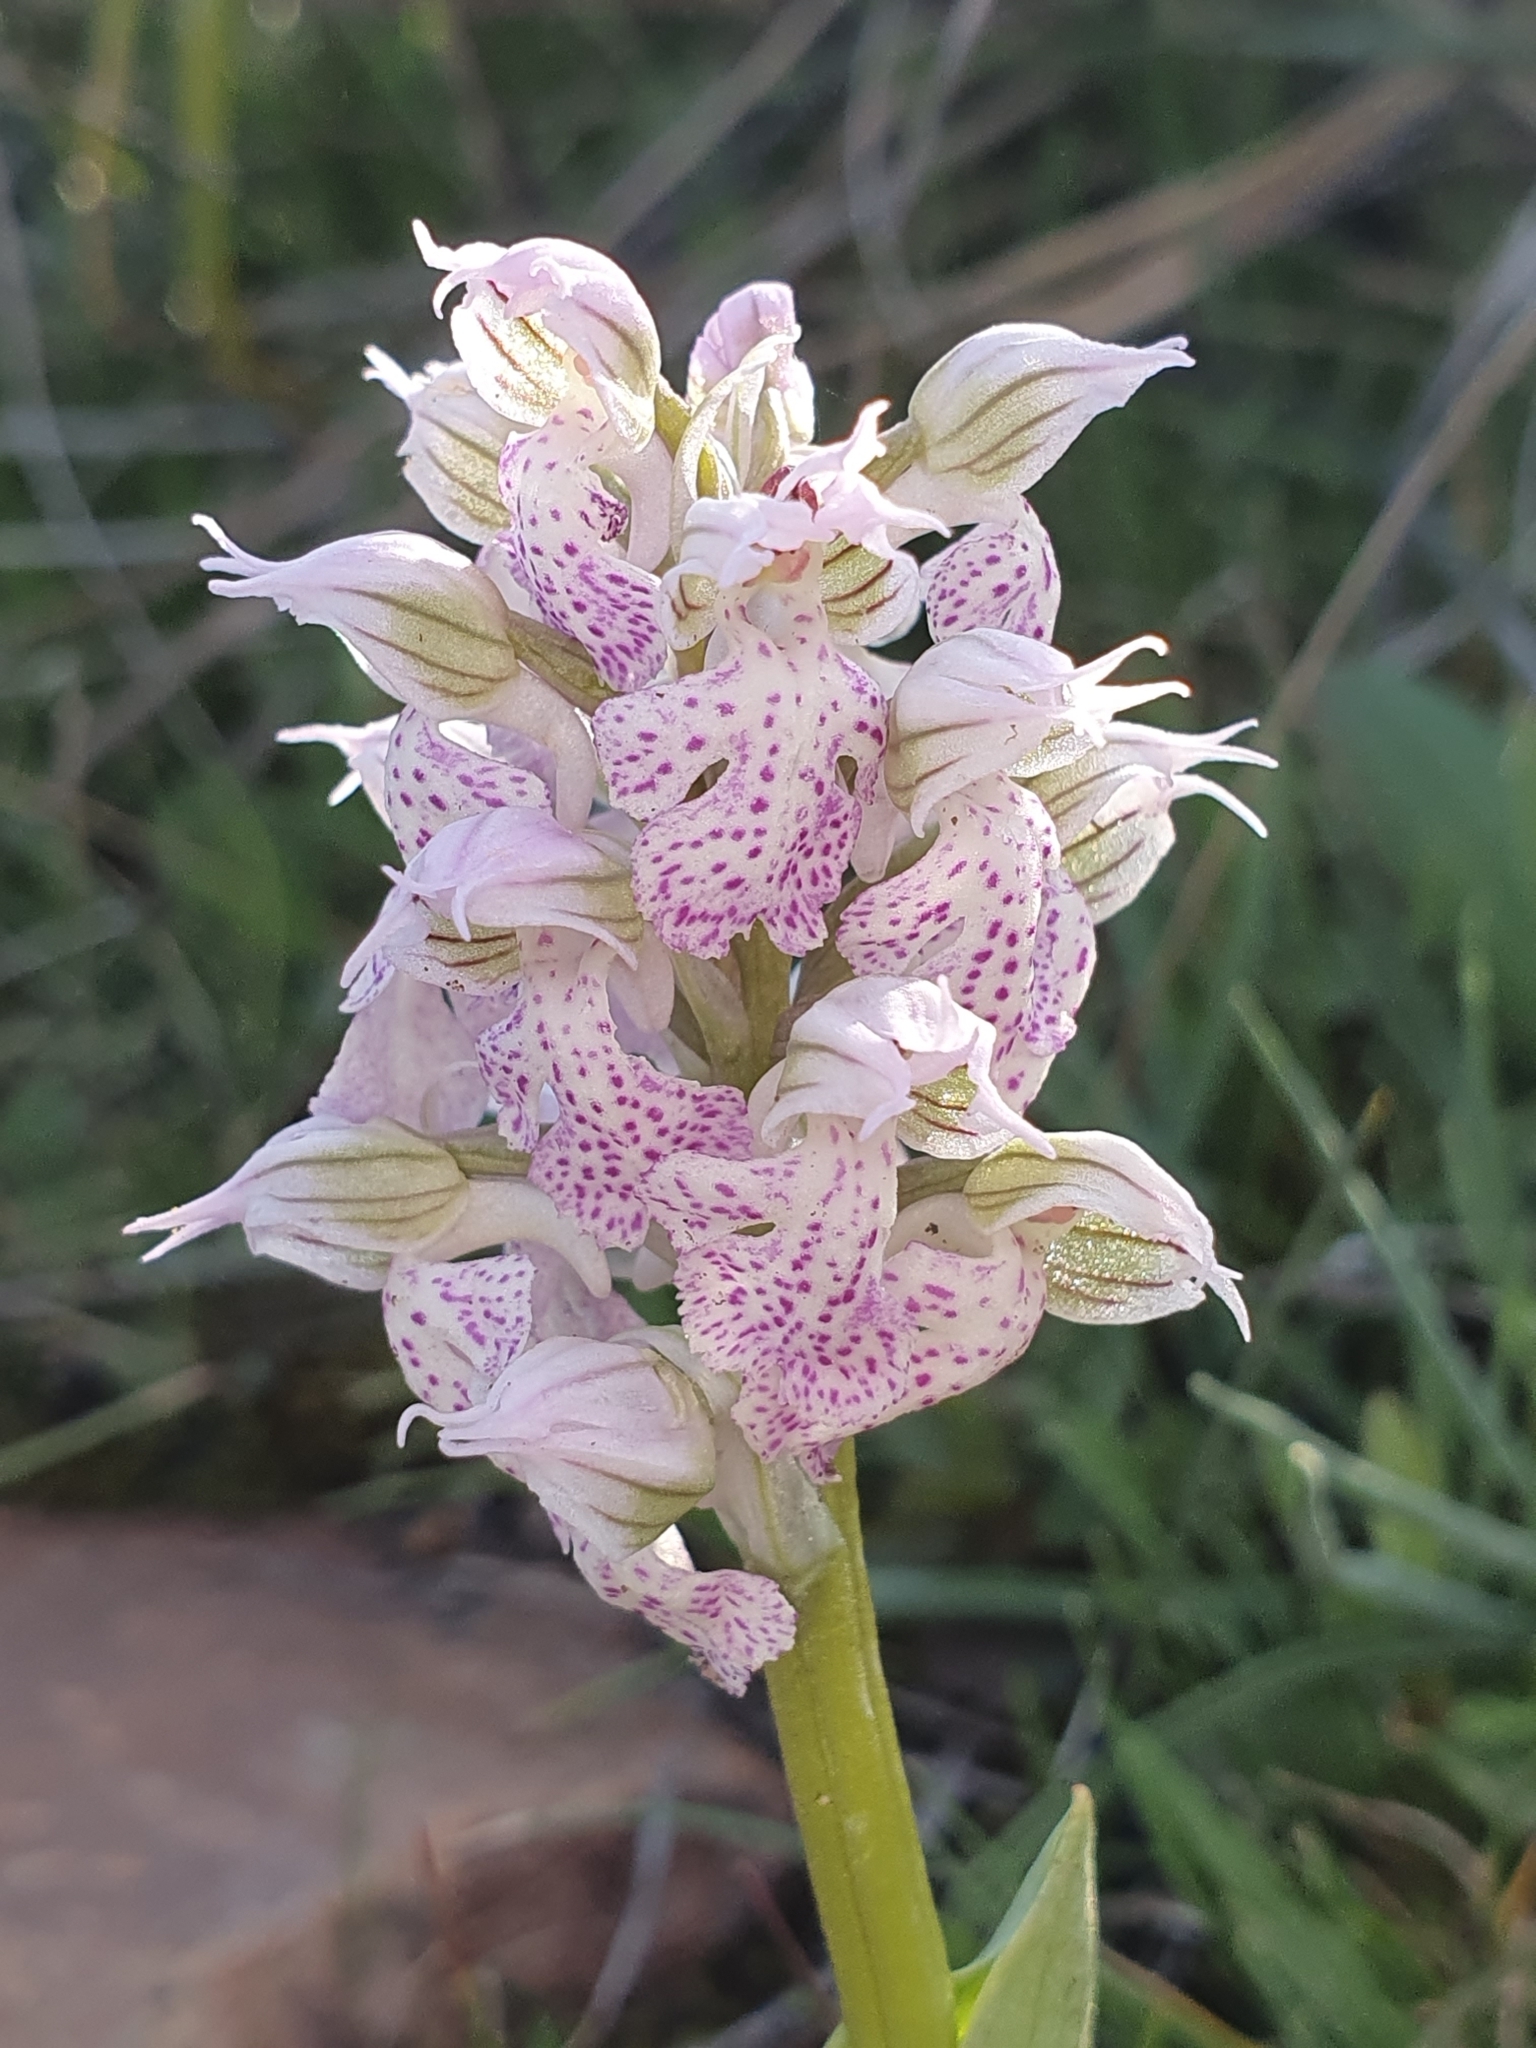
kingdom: Plantae
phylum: Tracheophyta
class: Liliopsida
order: Asparagales
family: Orchidaceae
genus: Neotinea
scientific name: Neotinea lactea
